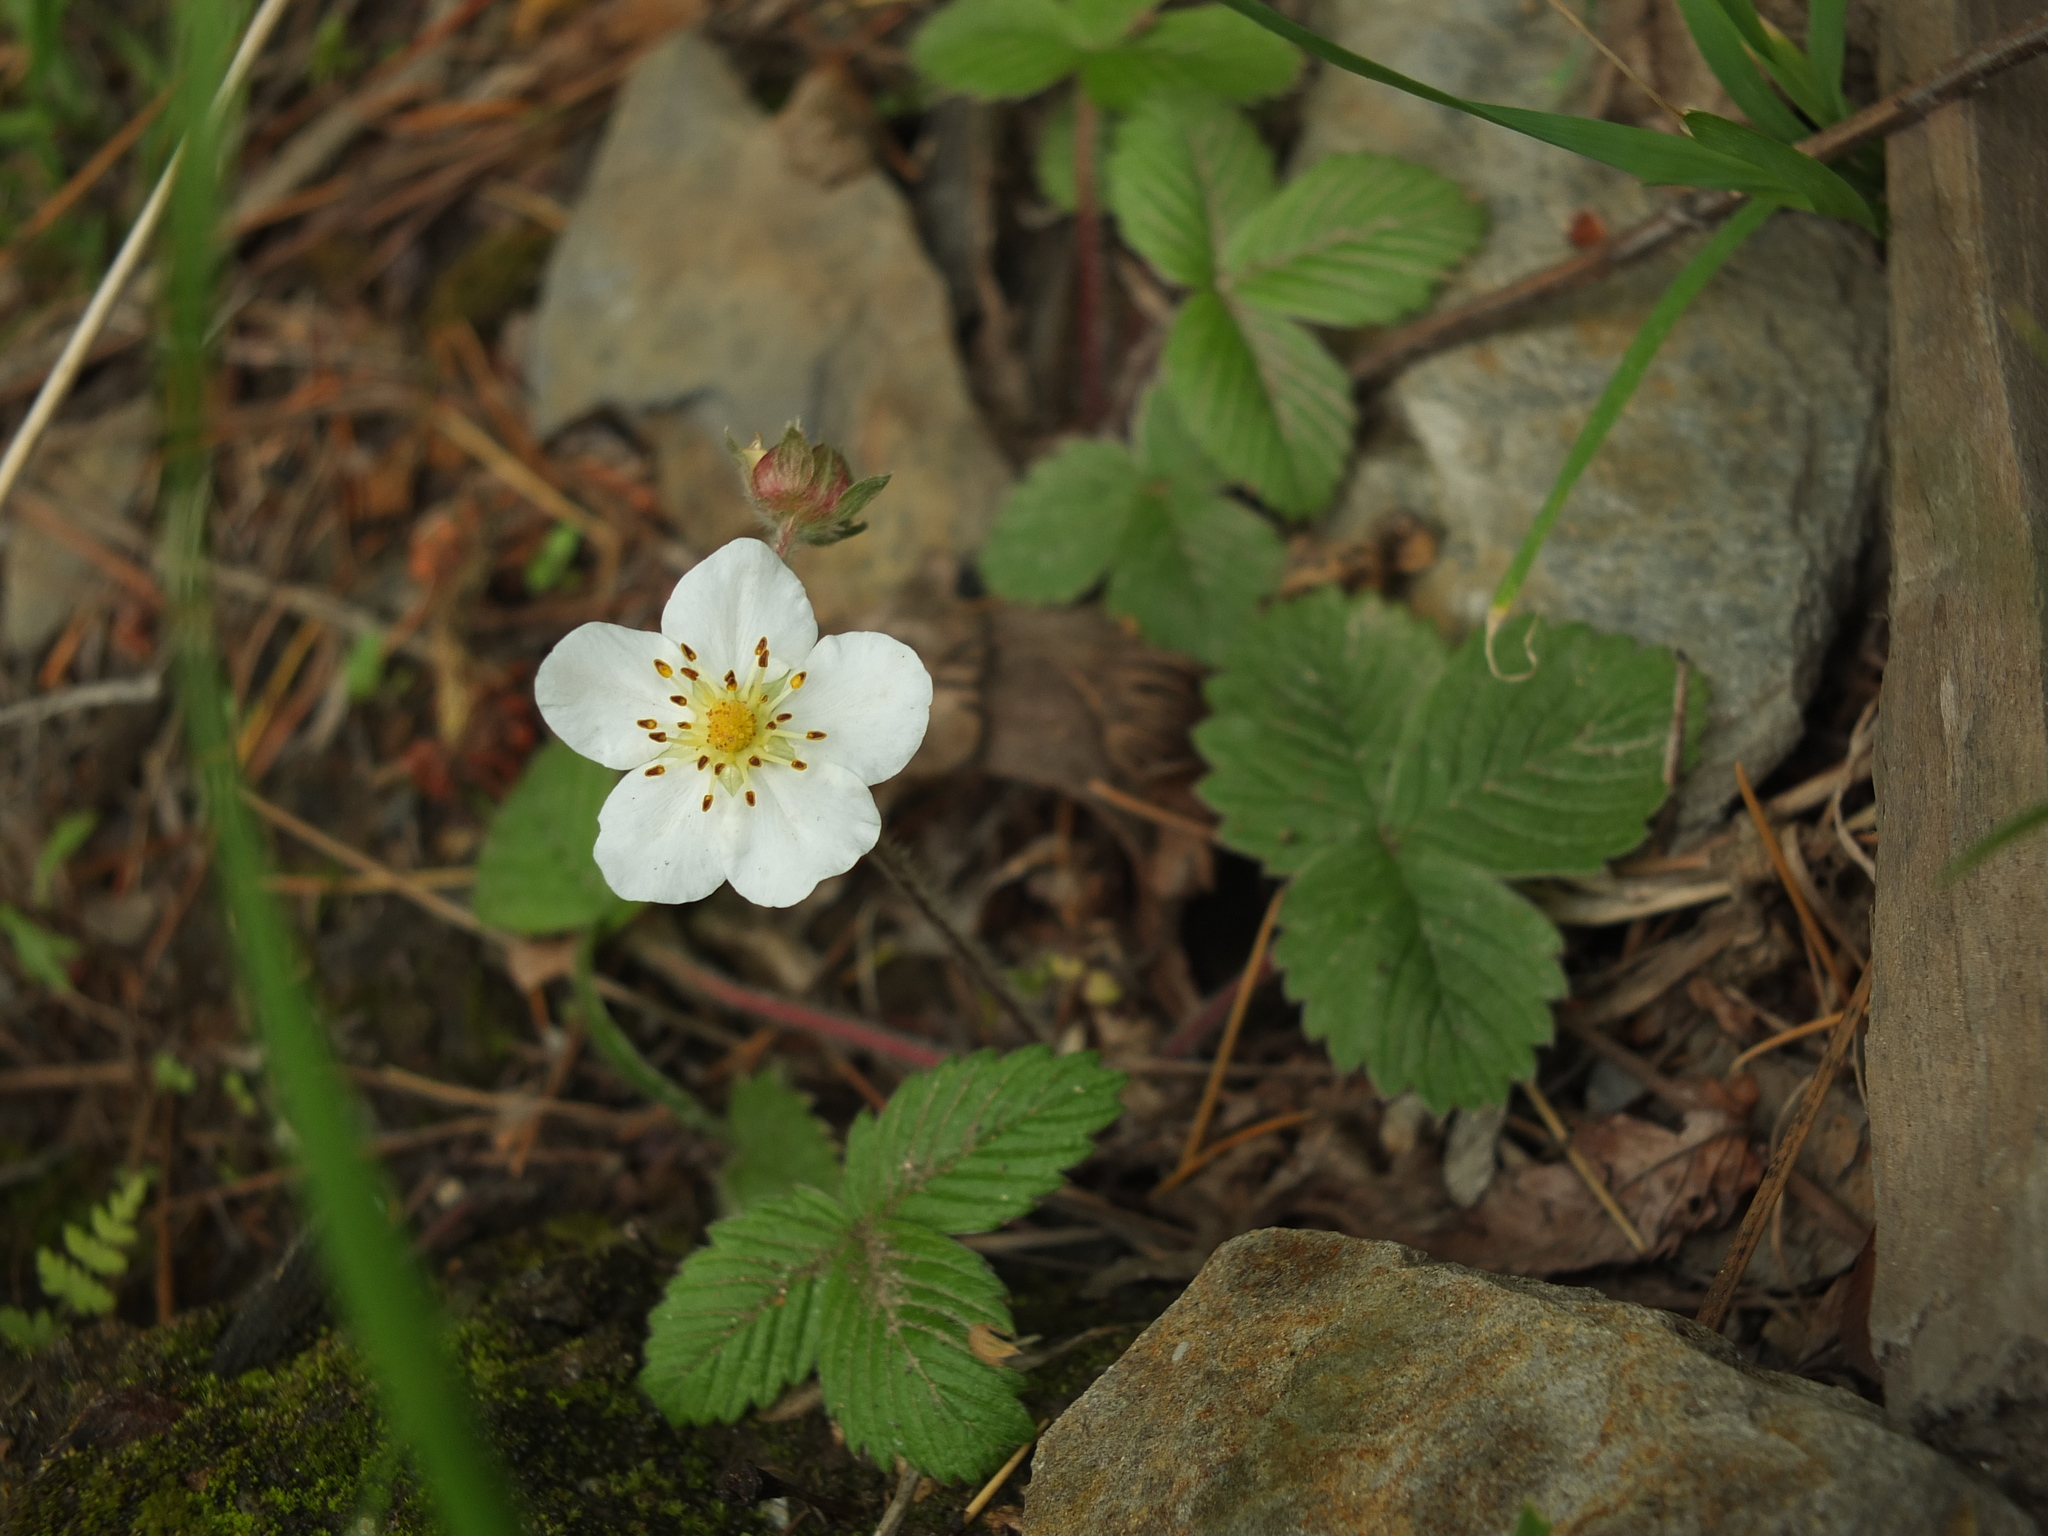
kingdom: Plantae
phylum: Tracheophyta
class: Magnoliopsida
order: Rosales
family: Rosaceae
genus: Fragaria
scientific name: Fragaria nubicola
